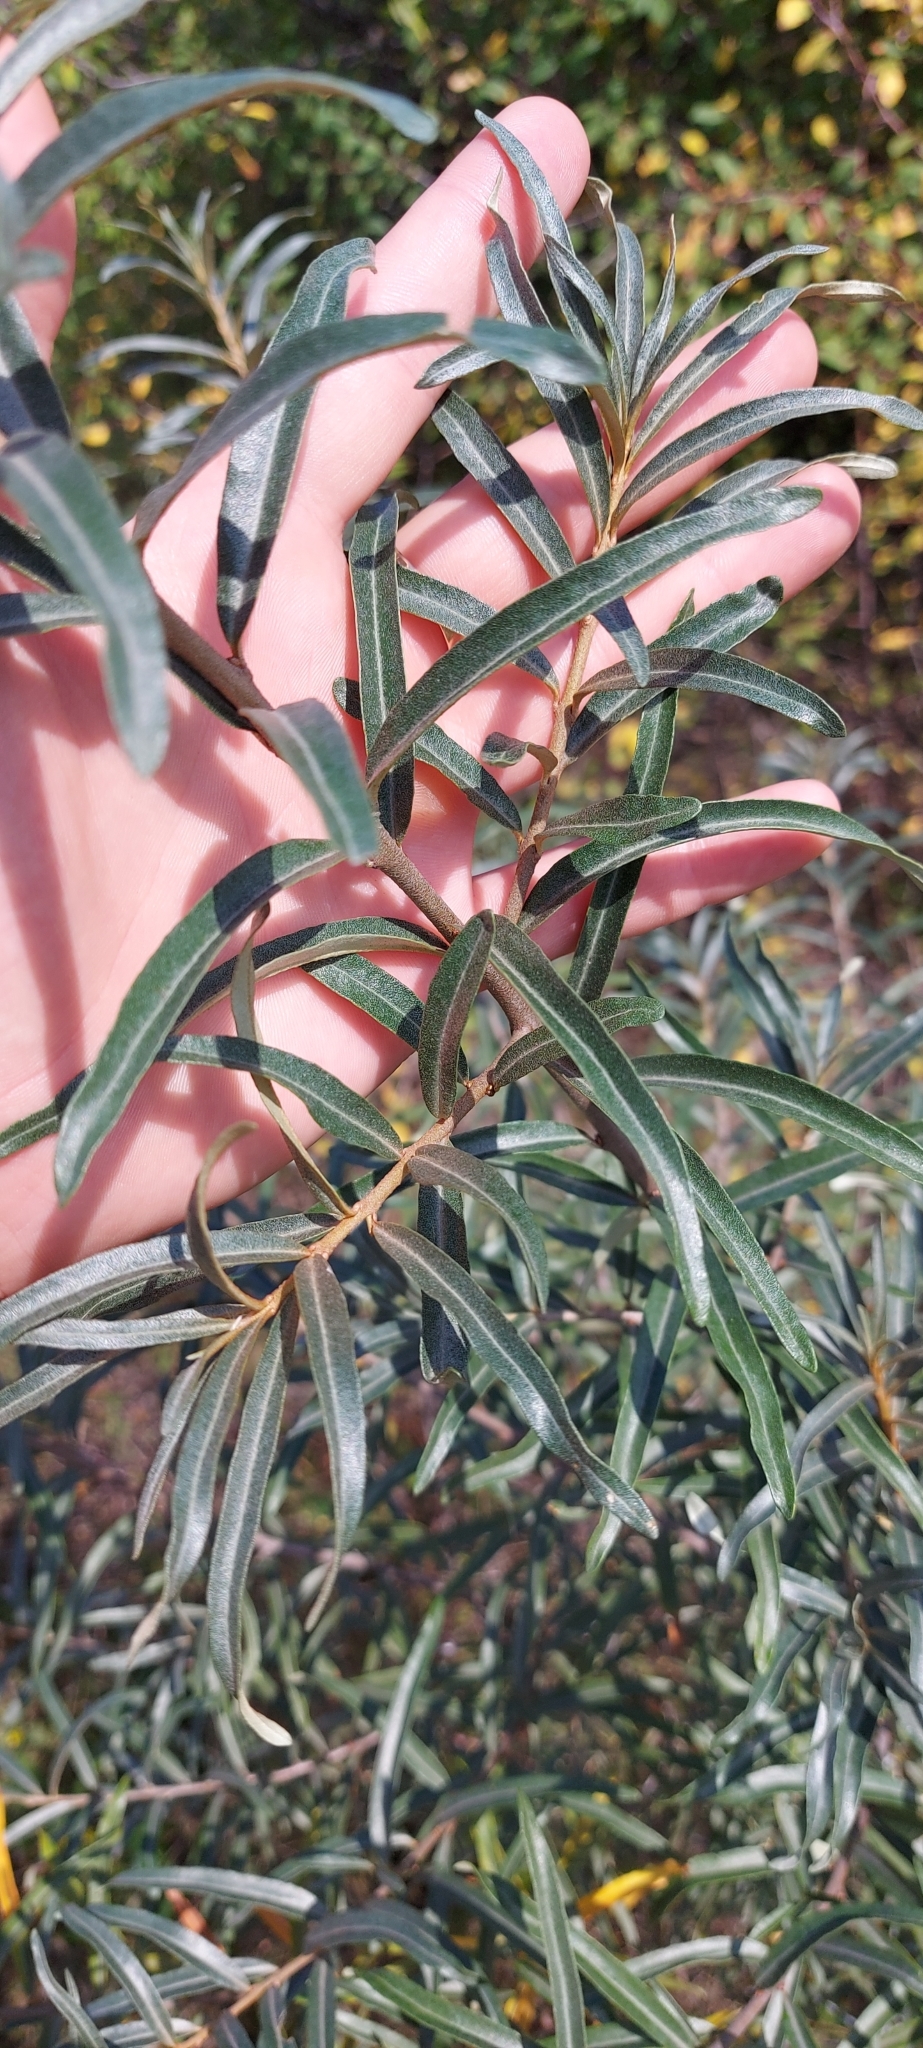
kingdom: Plantae
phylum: Tracheophyta
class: Magnoliopsida
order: Rosales
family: Elaeagnaceae
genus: Hippophae
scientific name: Hippophae rhamnoides
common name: Sea-buckthorn
